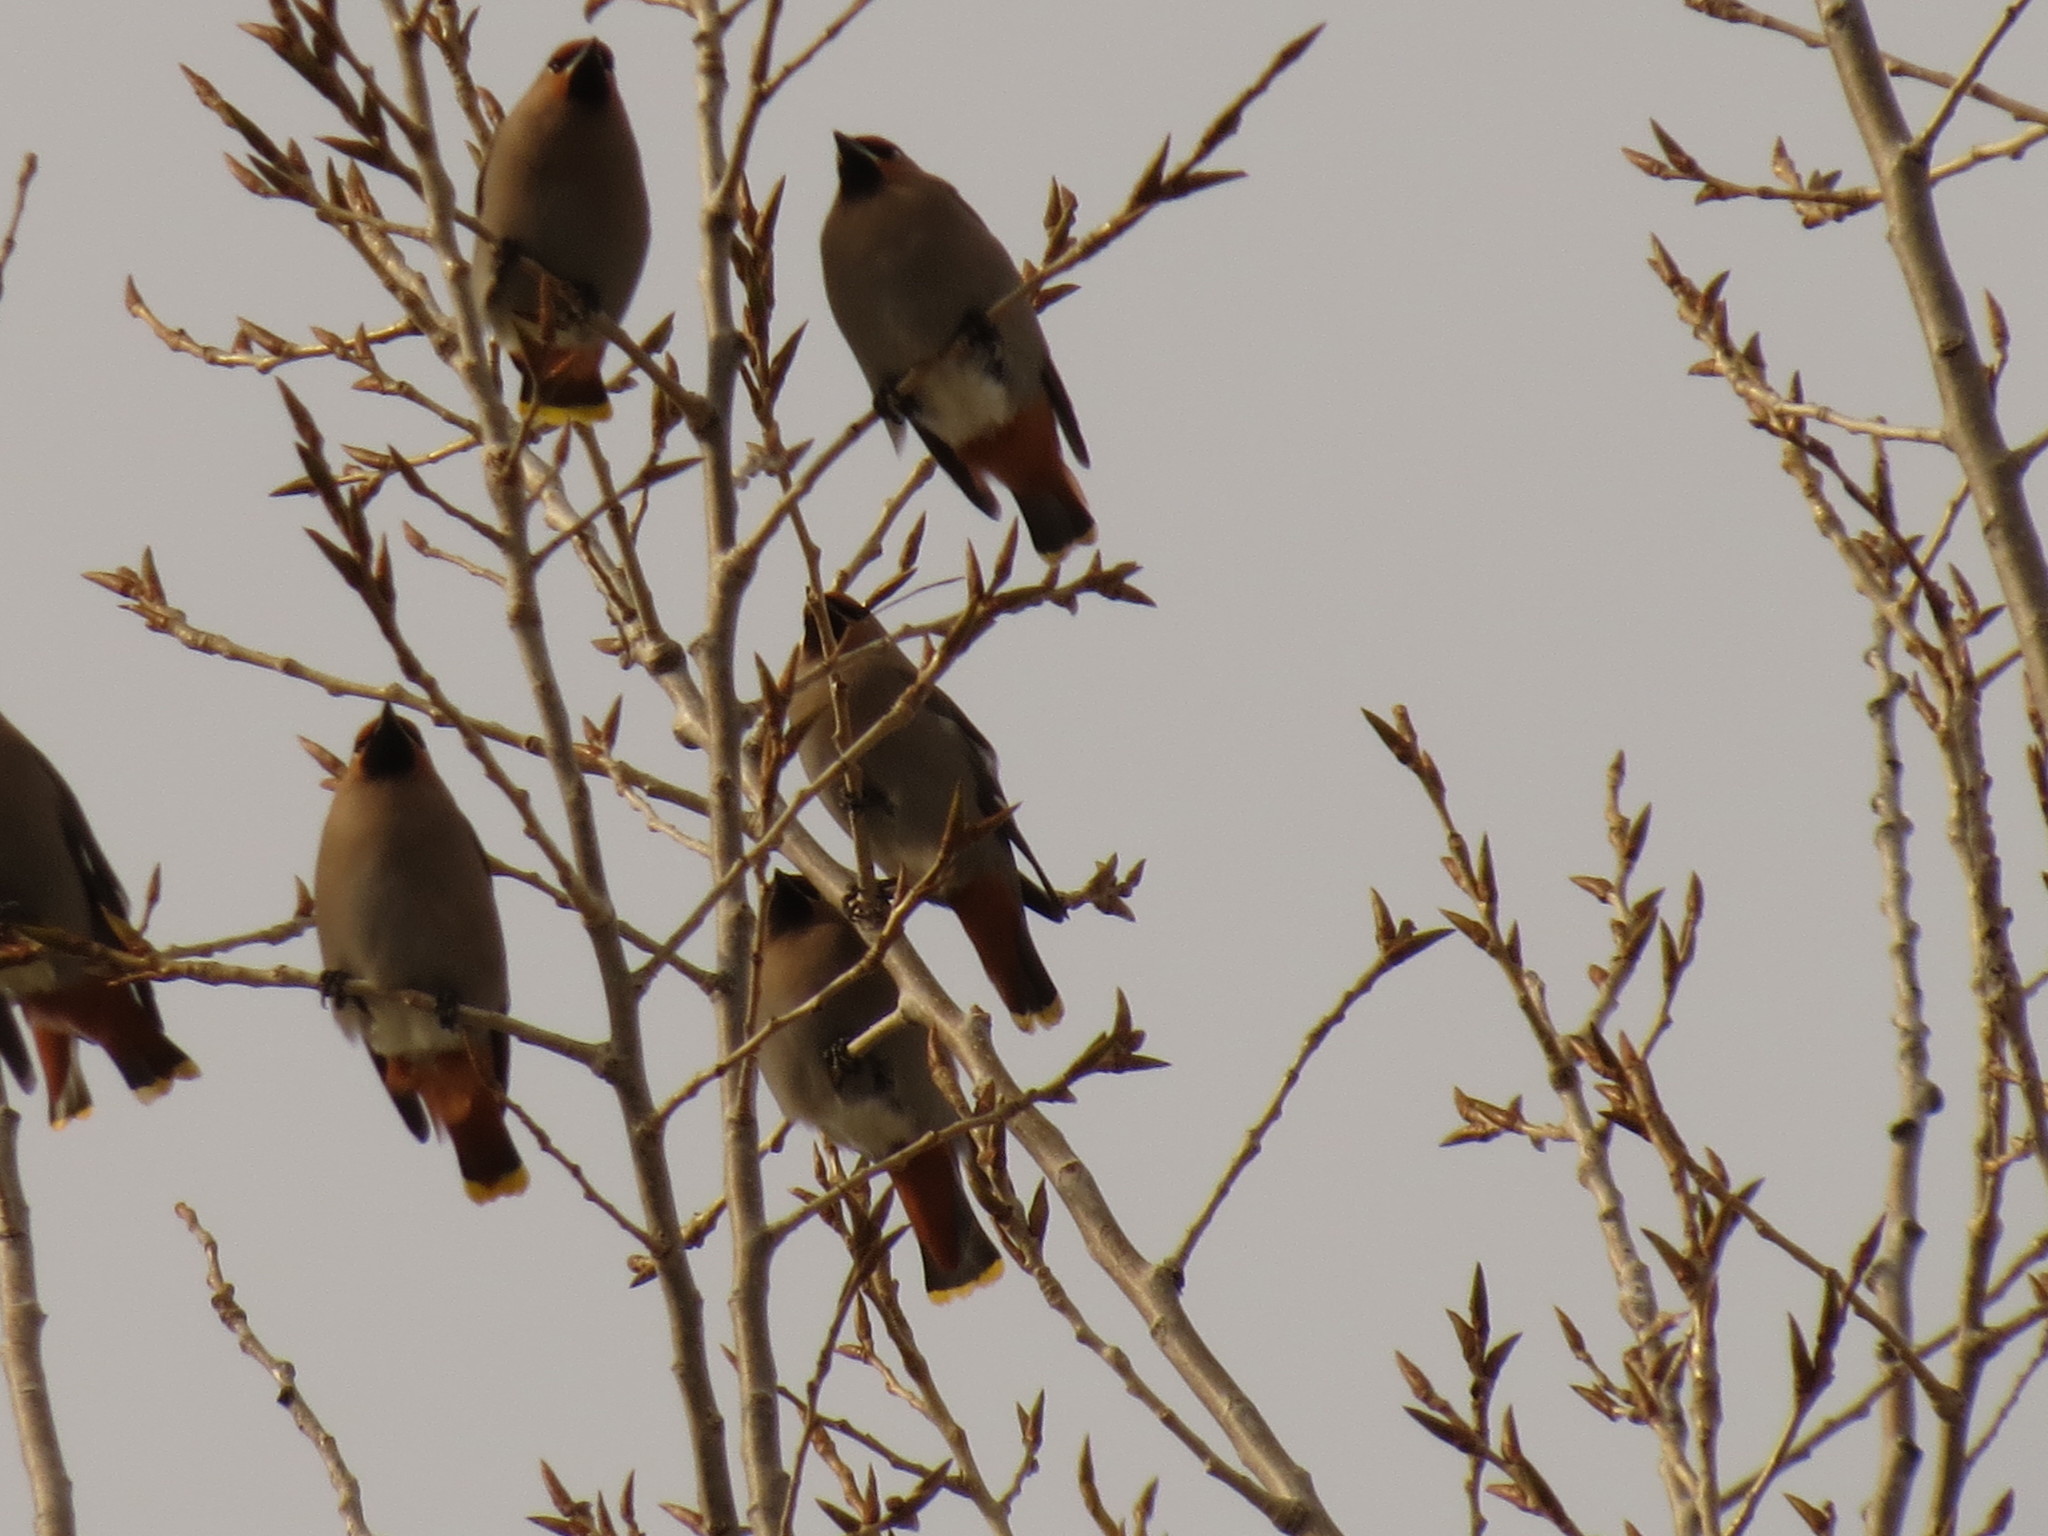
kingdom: Animalia
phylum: Chordata
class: Aves
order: Passeriformes
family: Bombycillidae
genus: Bombycilla
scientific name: Bombycilla garrulus
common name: Bohemian waxwing
